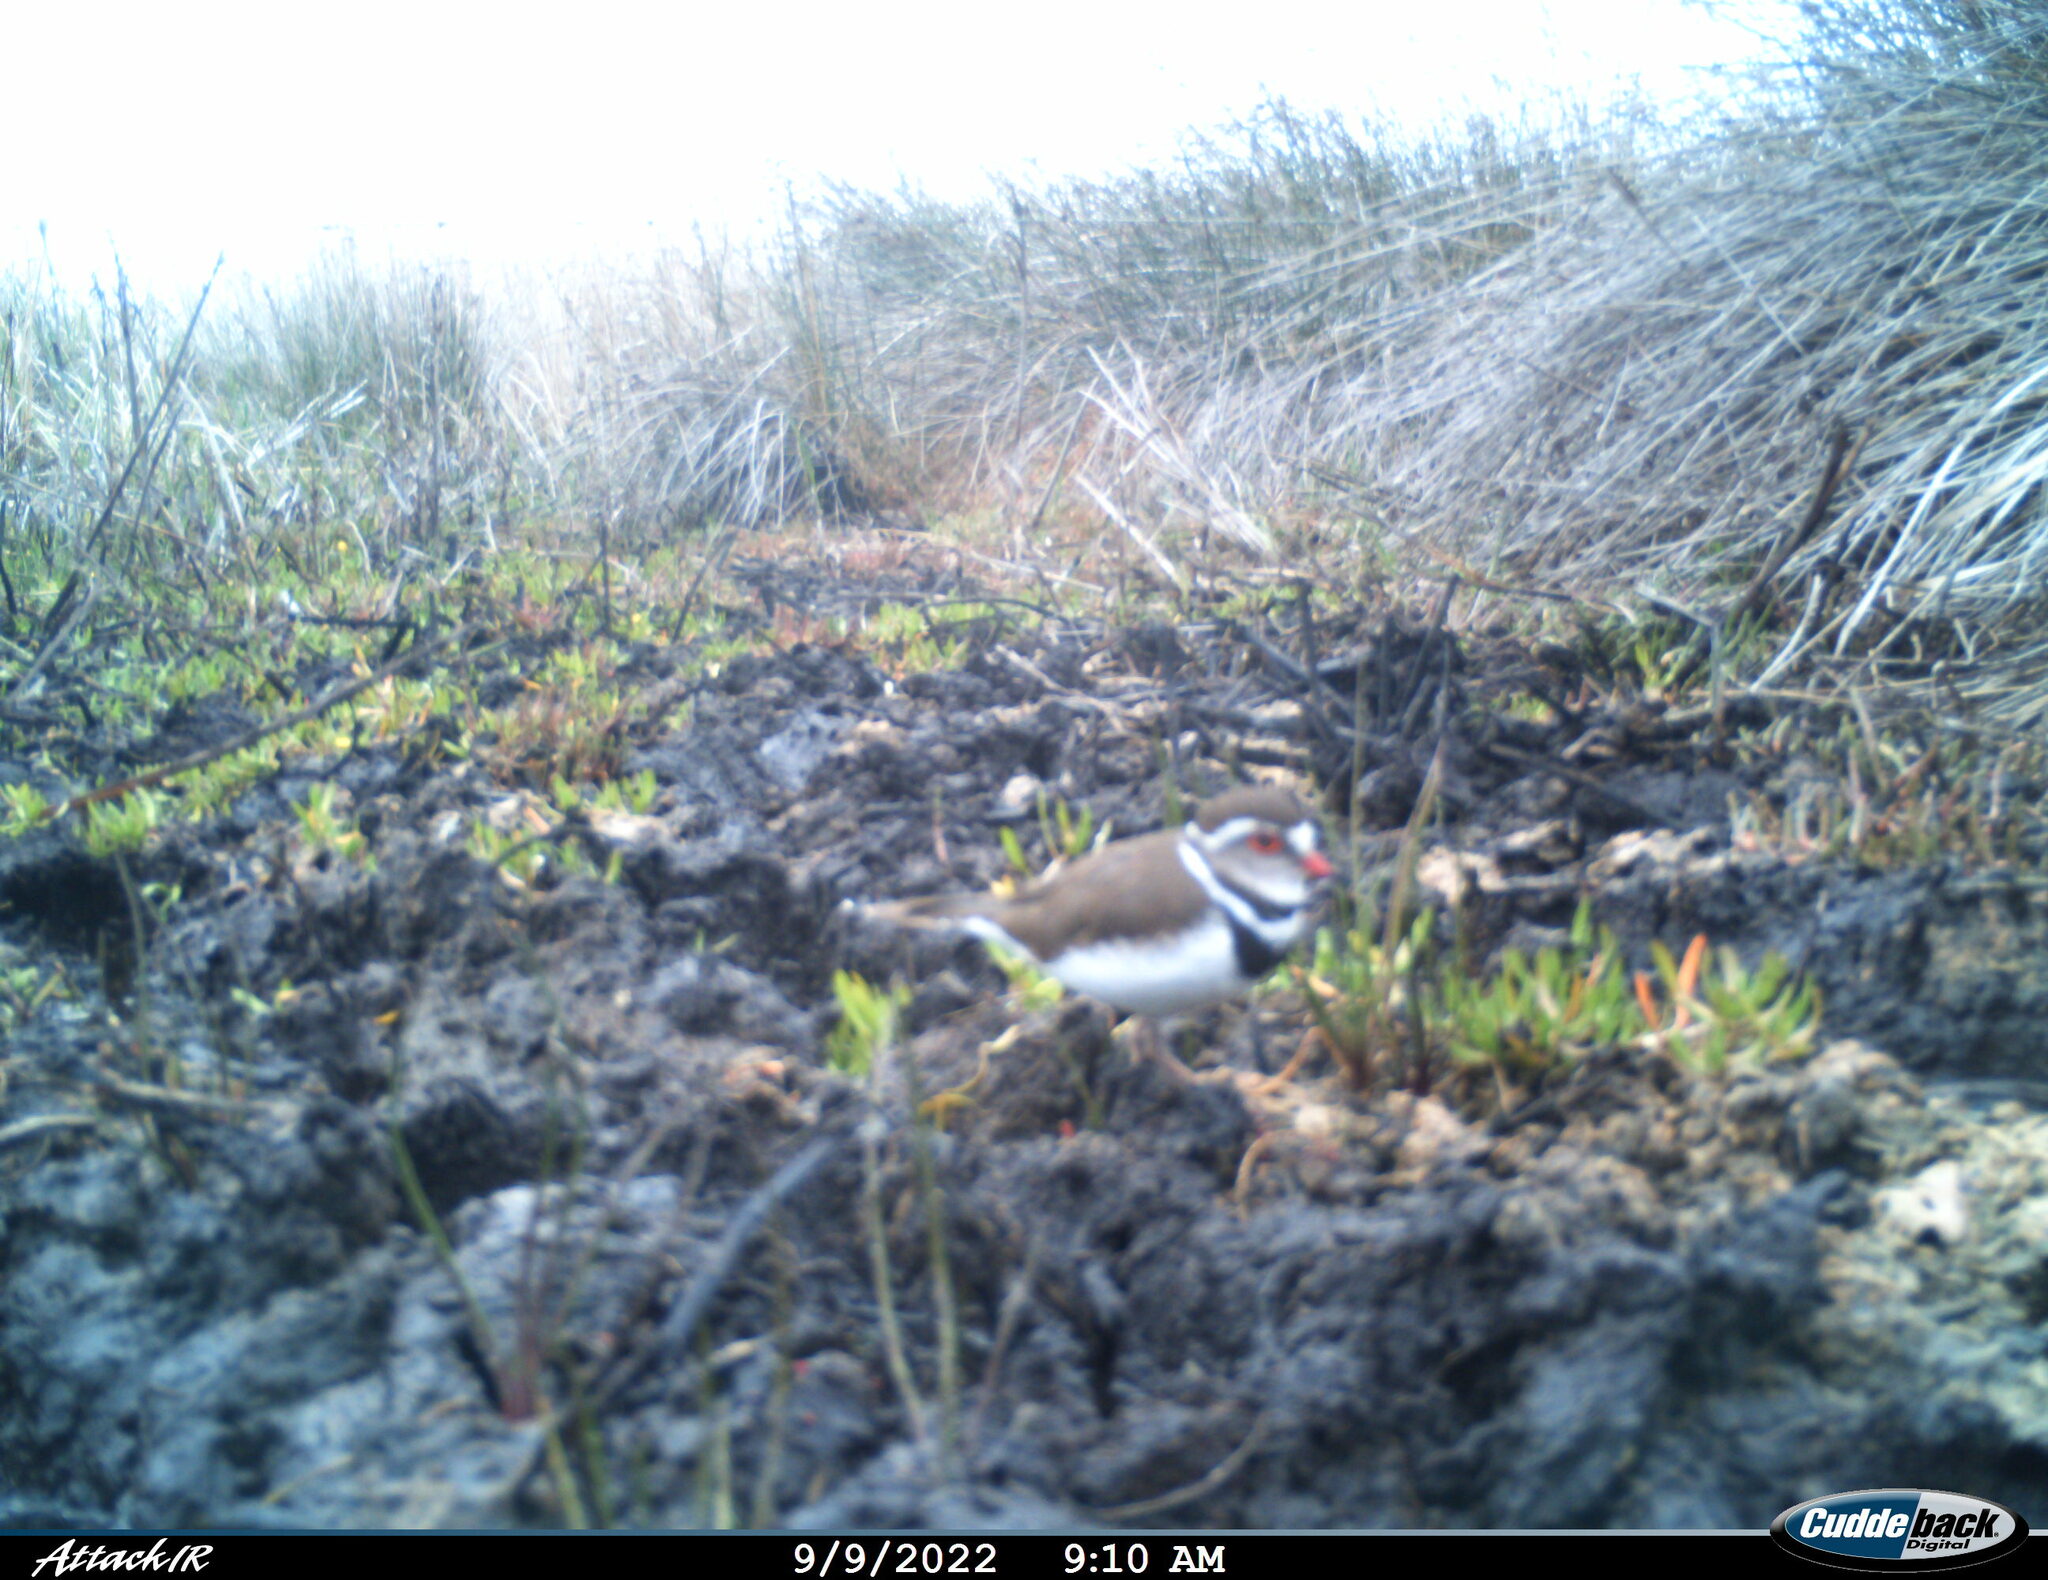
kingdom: Animalia
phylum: Chordata
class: Aves
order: Charadriiformes
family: Charadriidae
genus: Charadrius
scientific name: Charadrius tricollaris
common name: Three-banded plover
